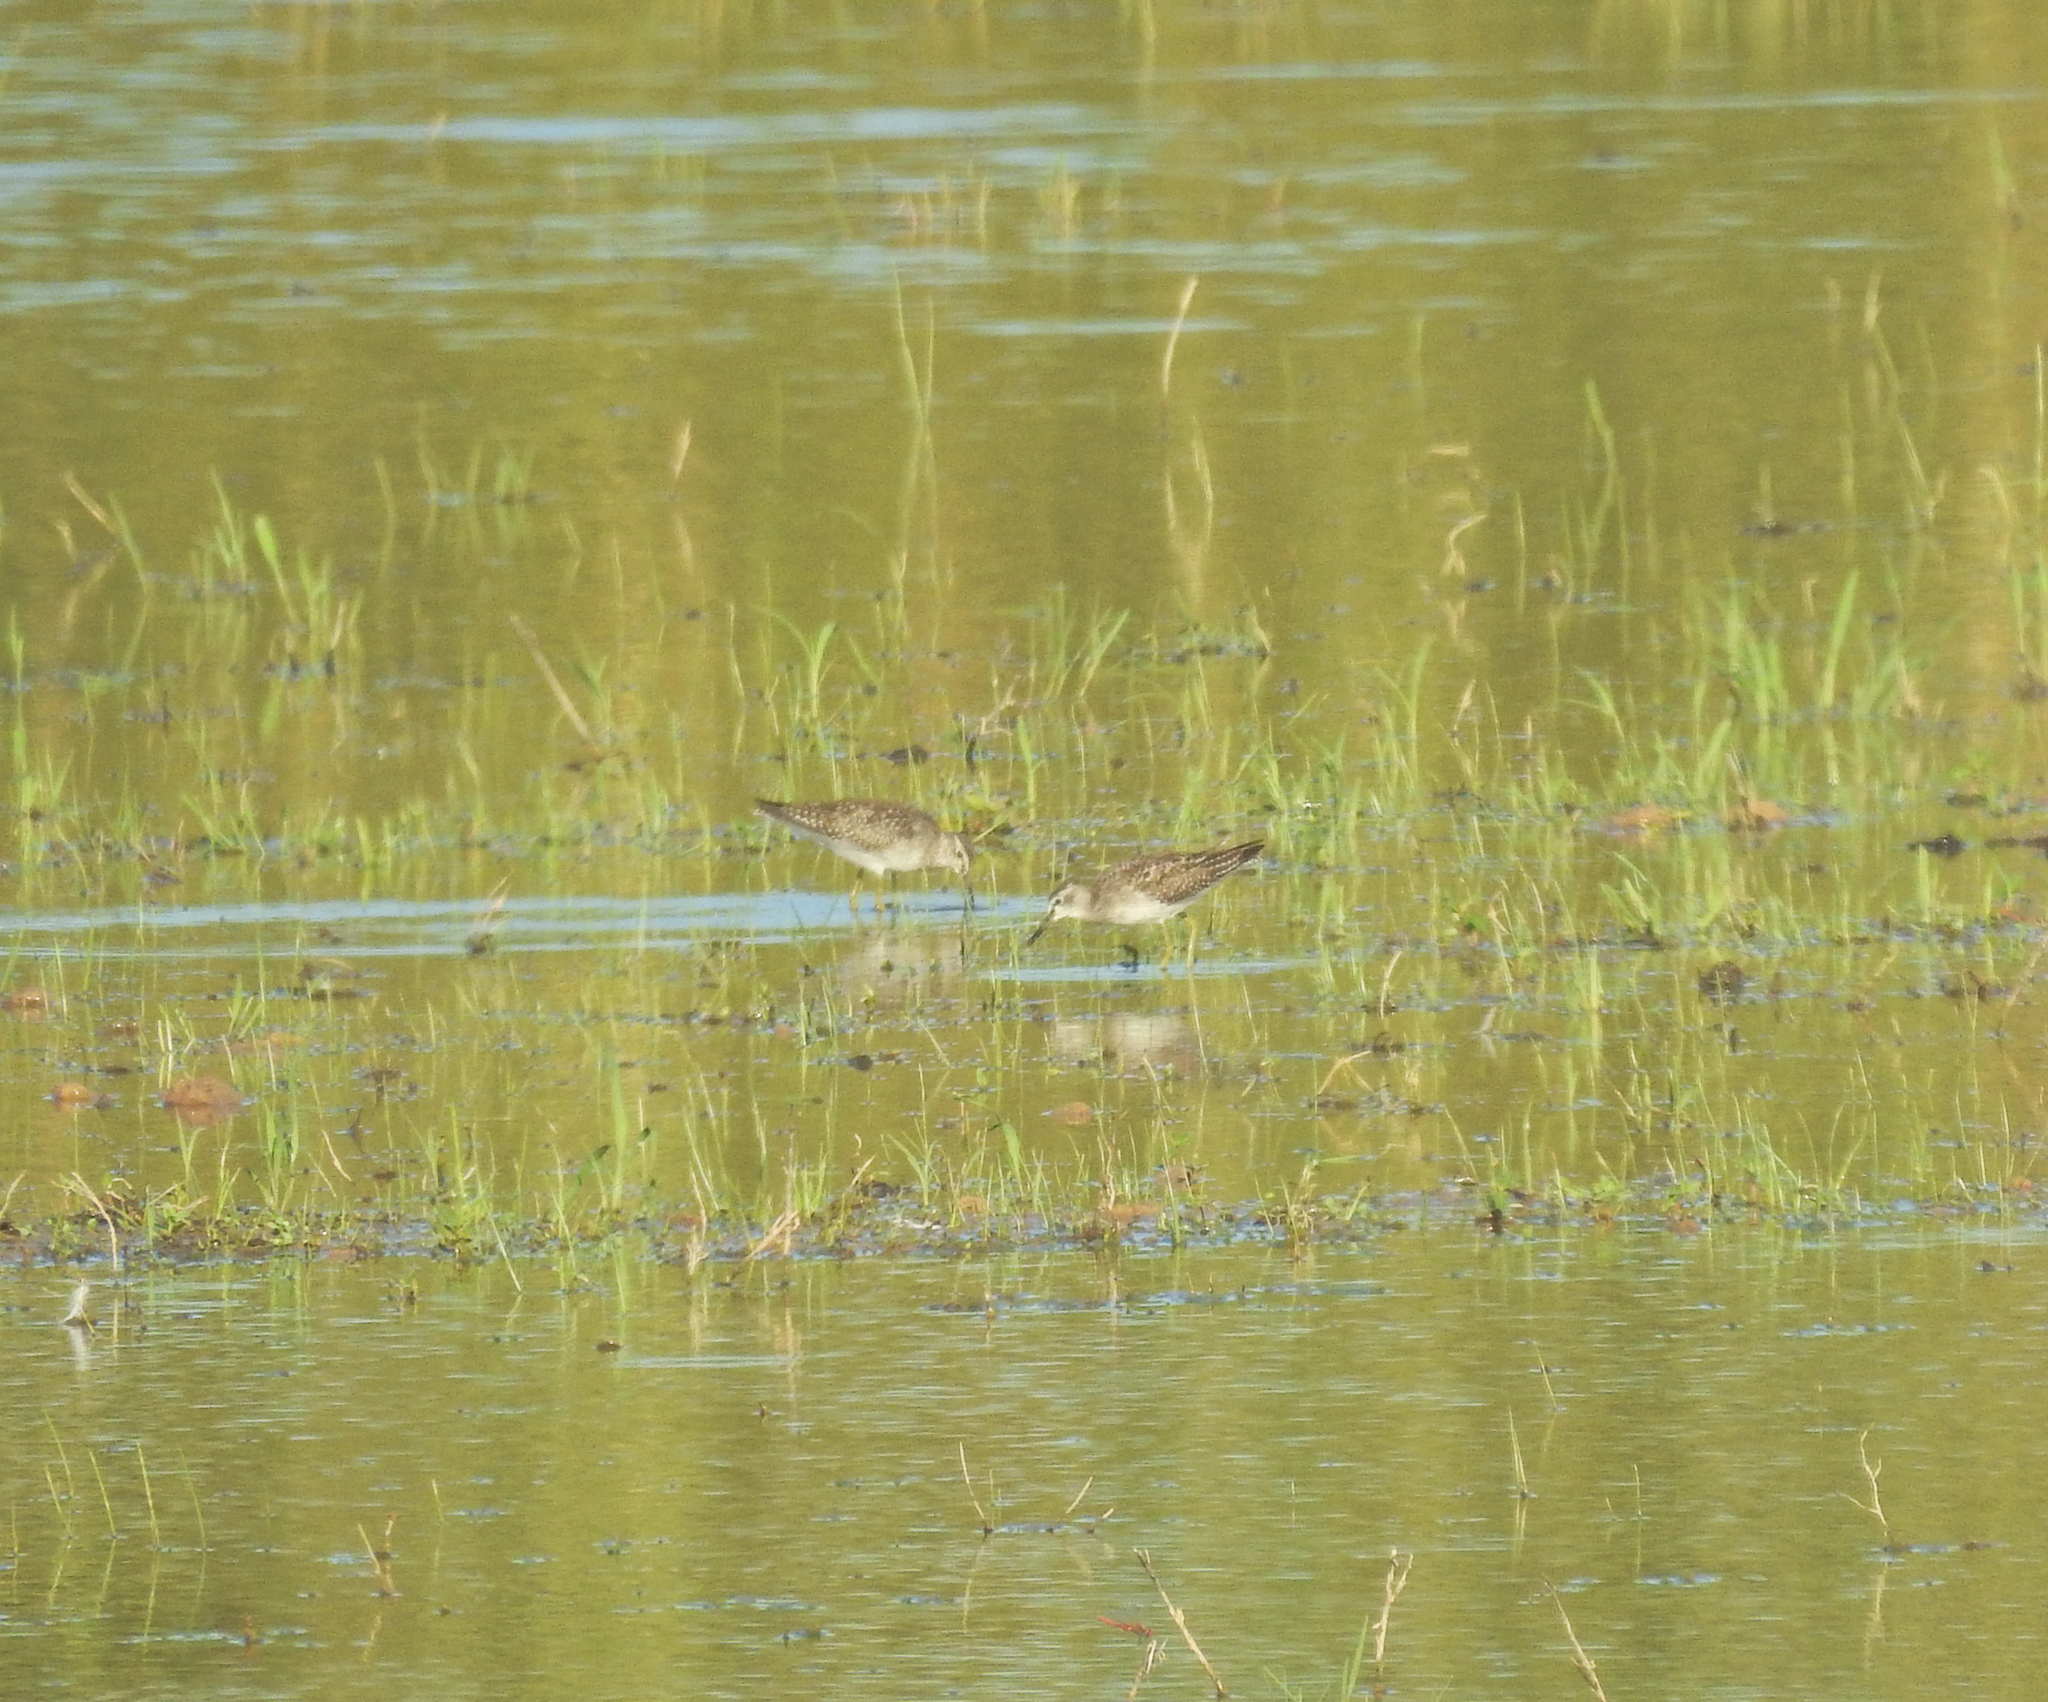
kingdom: Animalia
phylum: Chordata
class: Aves
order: Charadriiformes
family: Scolopacidae
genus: Tringa
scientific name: Tringa glareola
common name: Wood sandpiper
